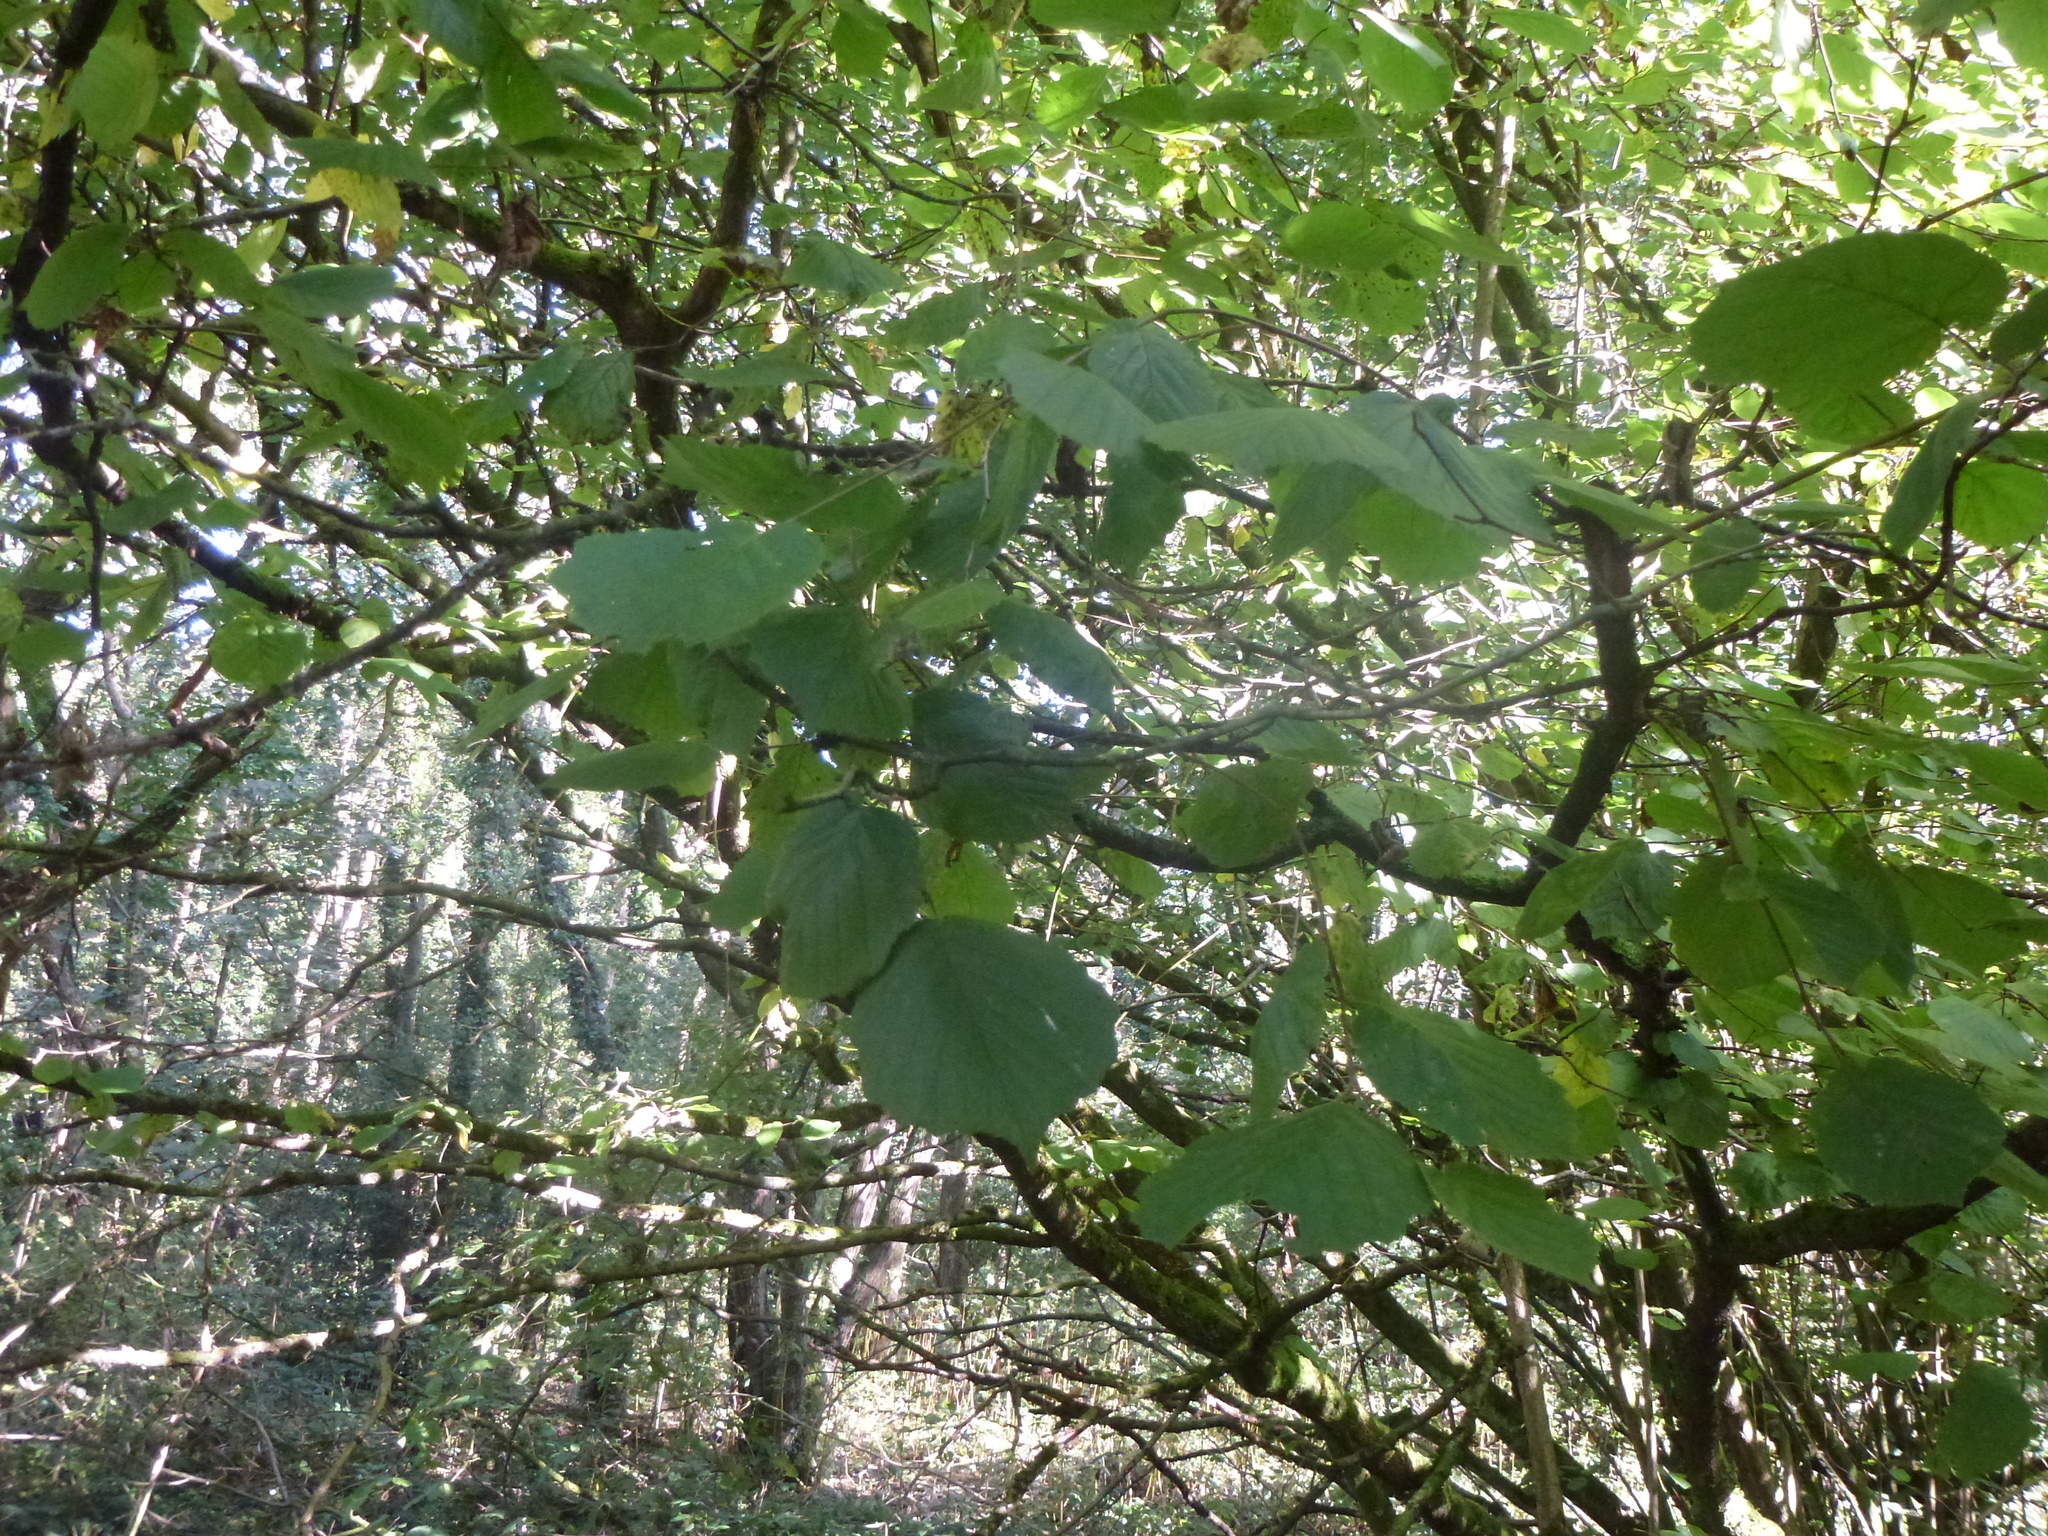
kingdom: Plantae
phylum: Tracheophyta
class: Magnoliopsida
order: Fagales
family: Betulaceae
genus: Corylus
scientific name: Corylus avellana
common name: European hazel
